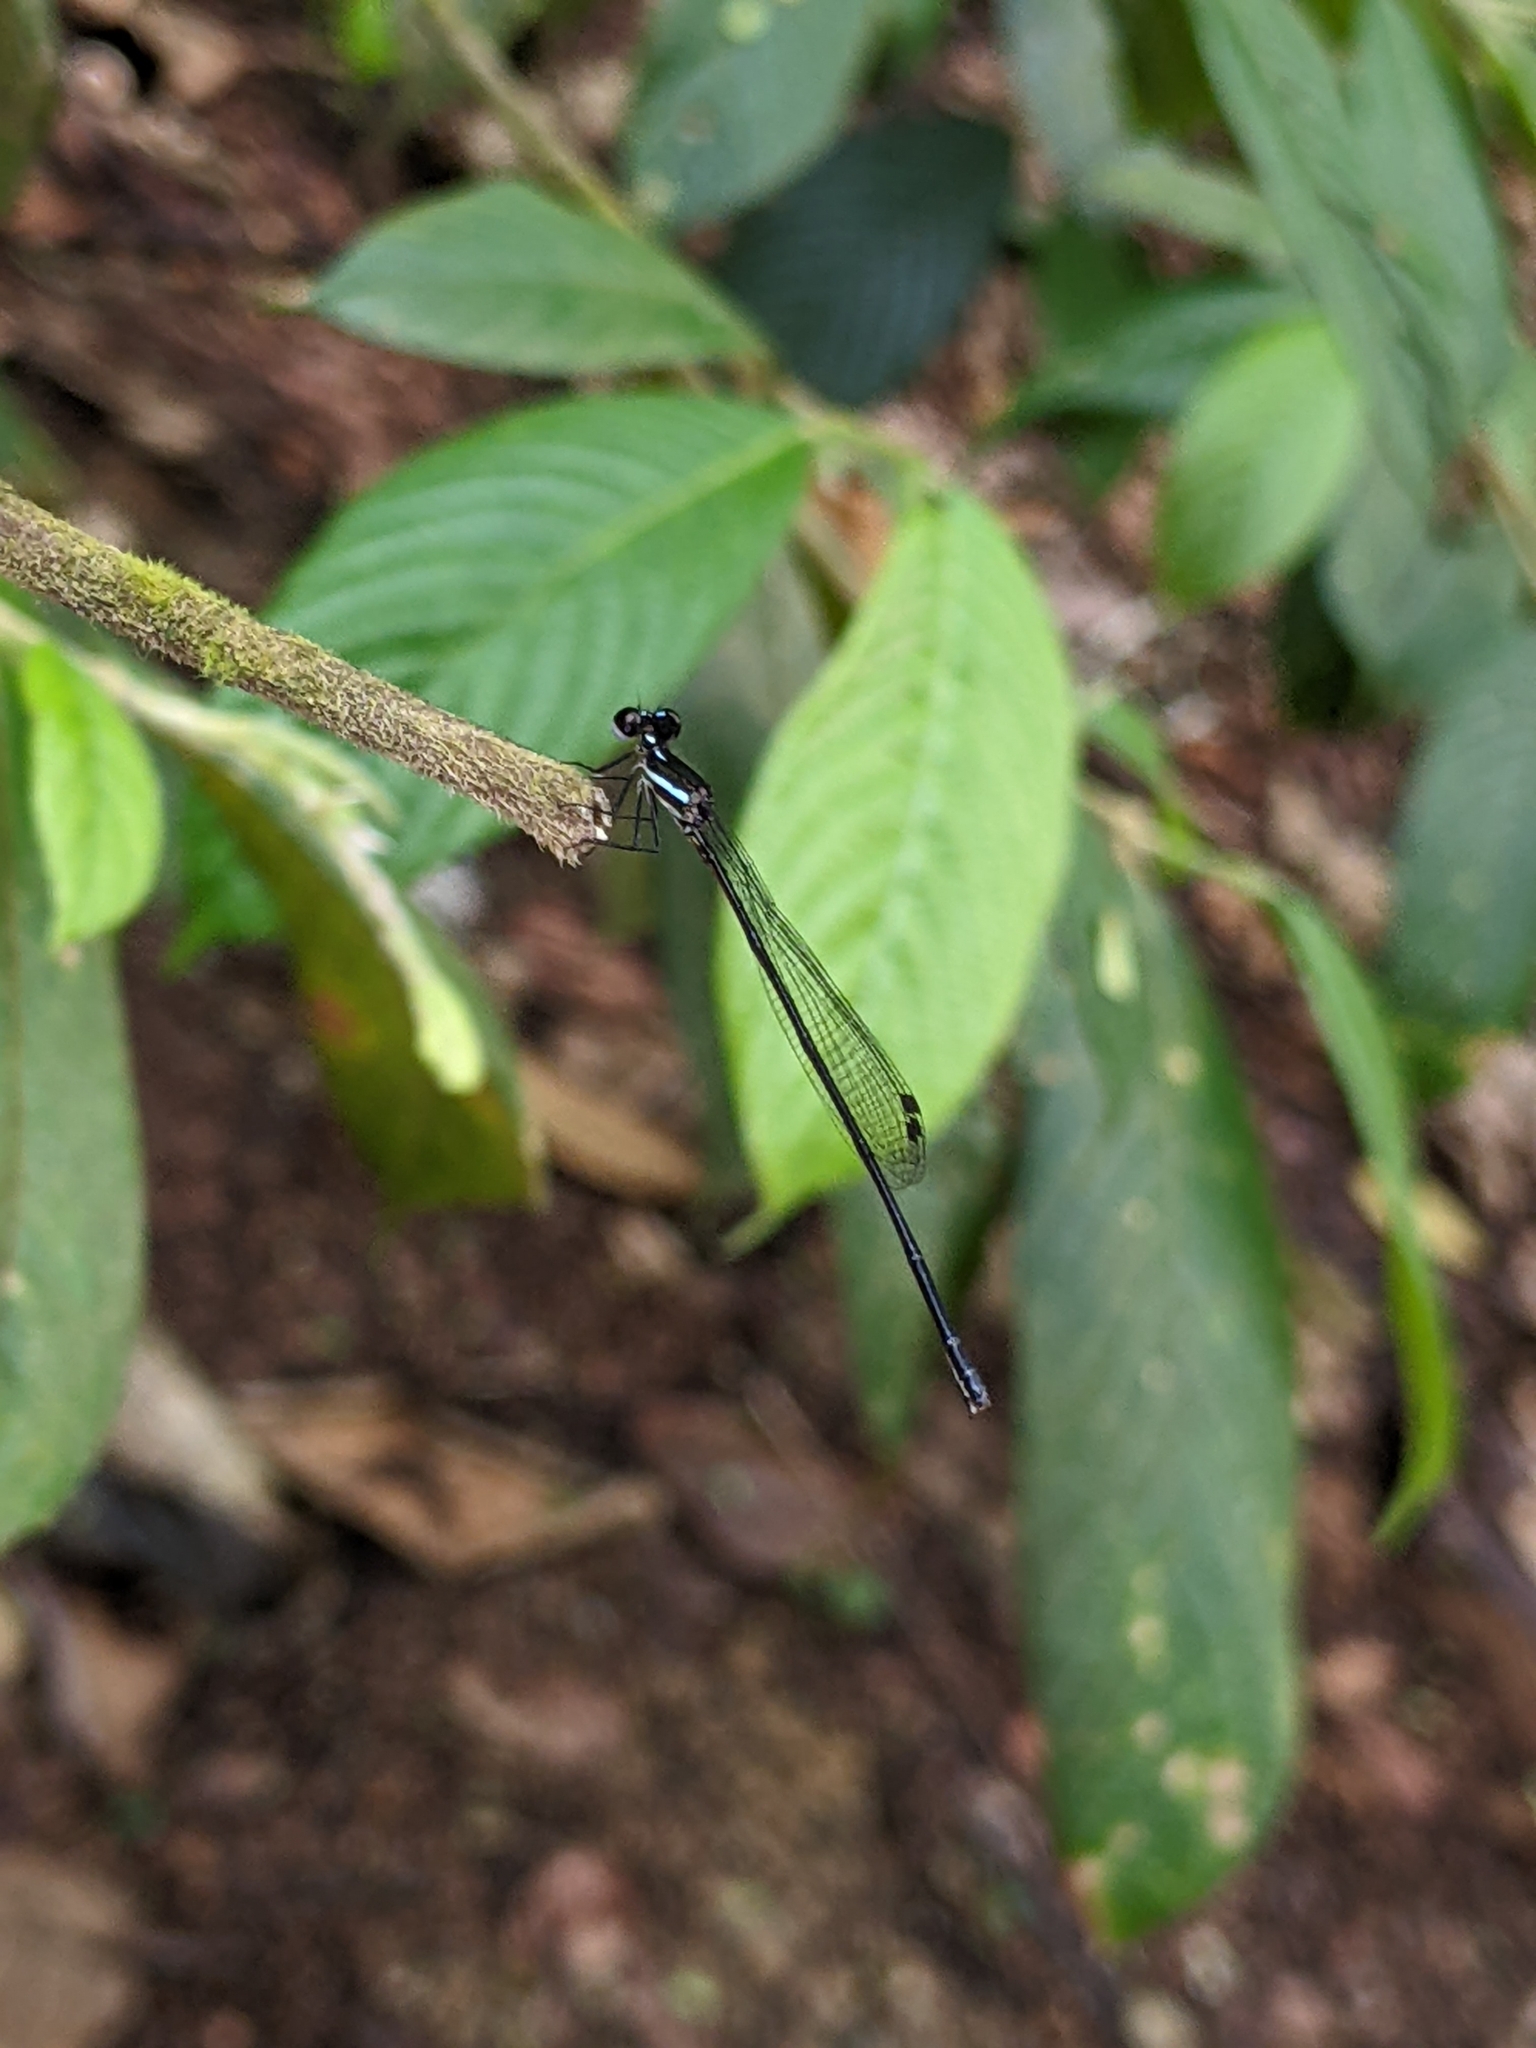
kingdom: Animalia
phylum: Arthropoda
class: Insecta
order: Odonata
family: Platycnemididae
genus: Prodasineura
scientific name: Prodasineura collaris
